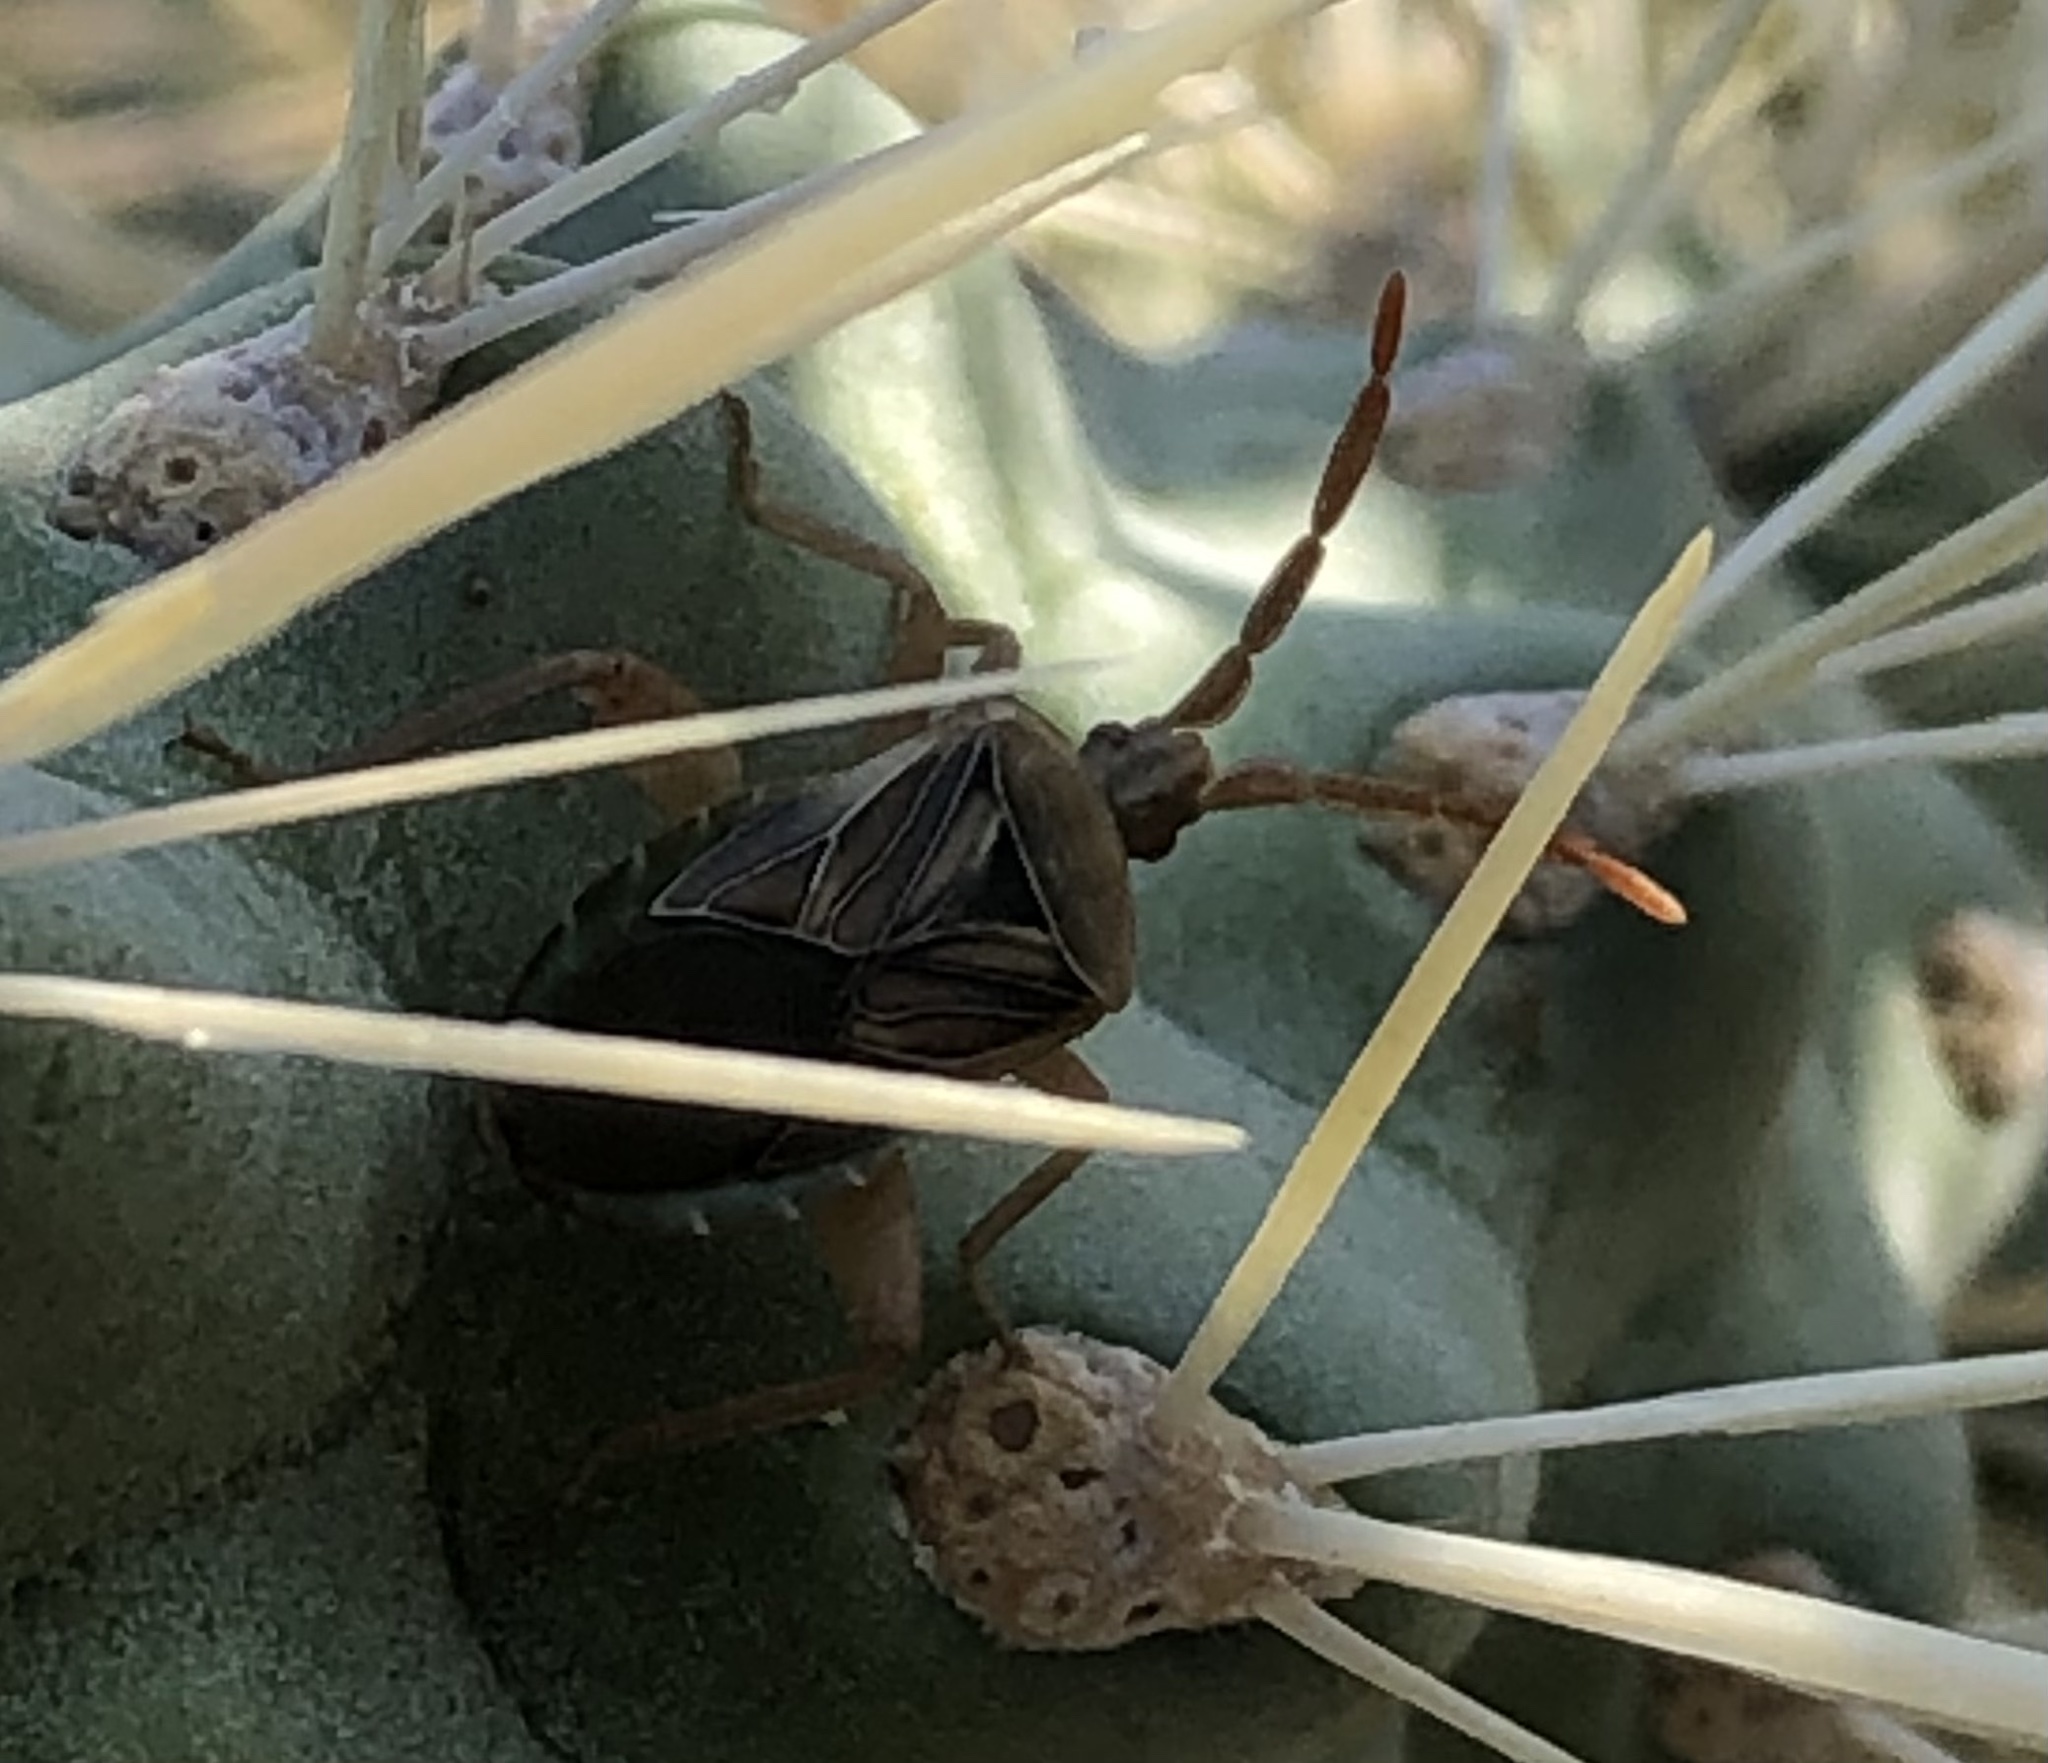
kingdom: Animalia
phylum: Arthropoda
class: Insecta
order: Hemiptera
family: Coreidae
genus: Chelinidea
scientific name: Chelinidea hunteri
